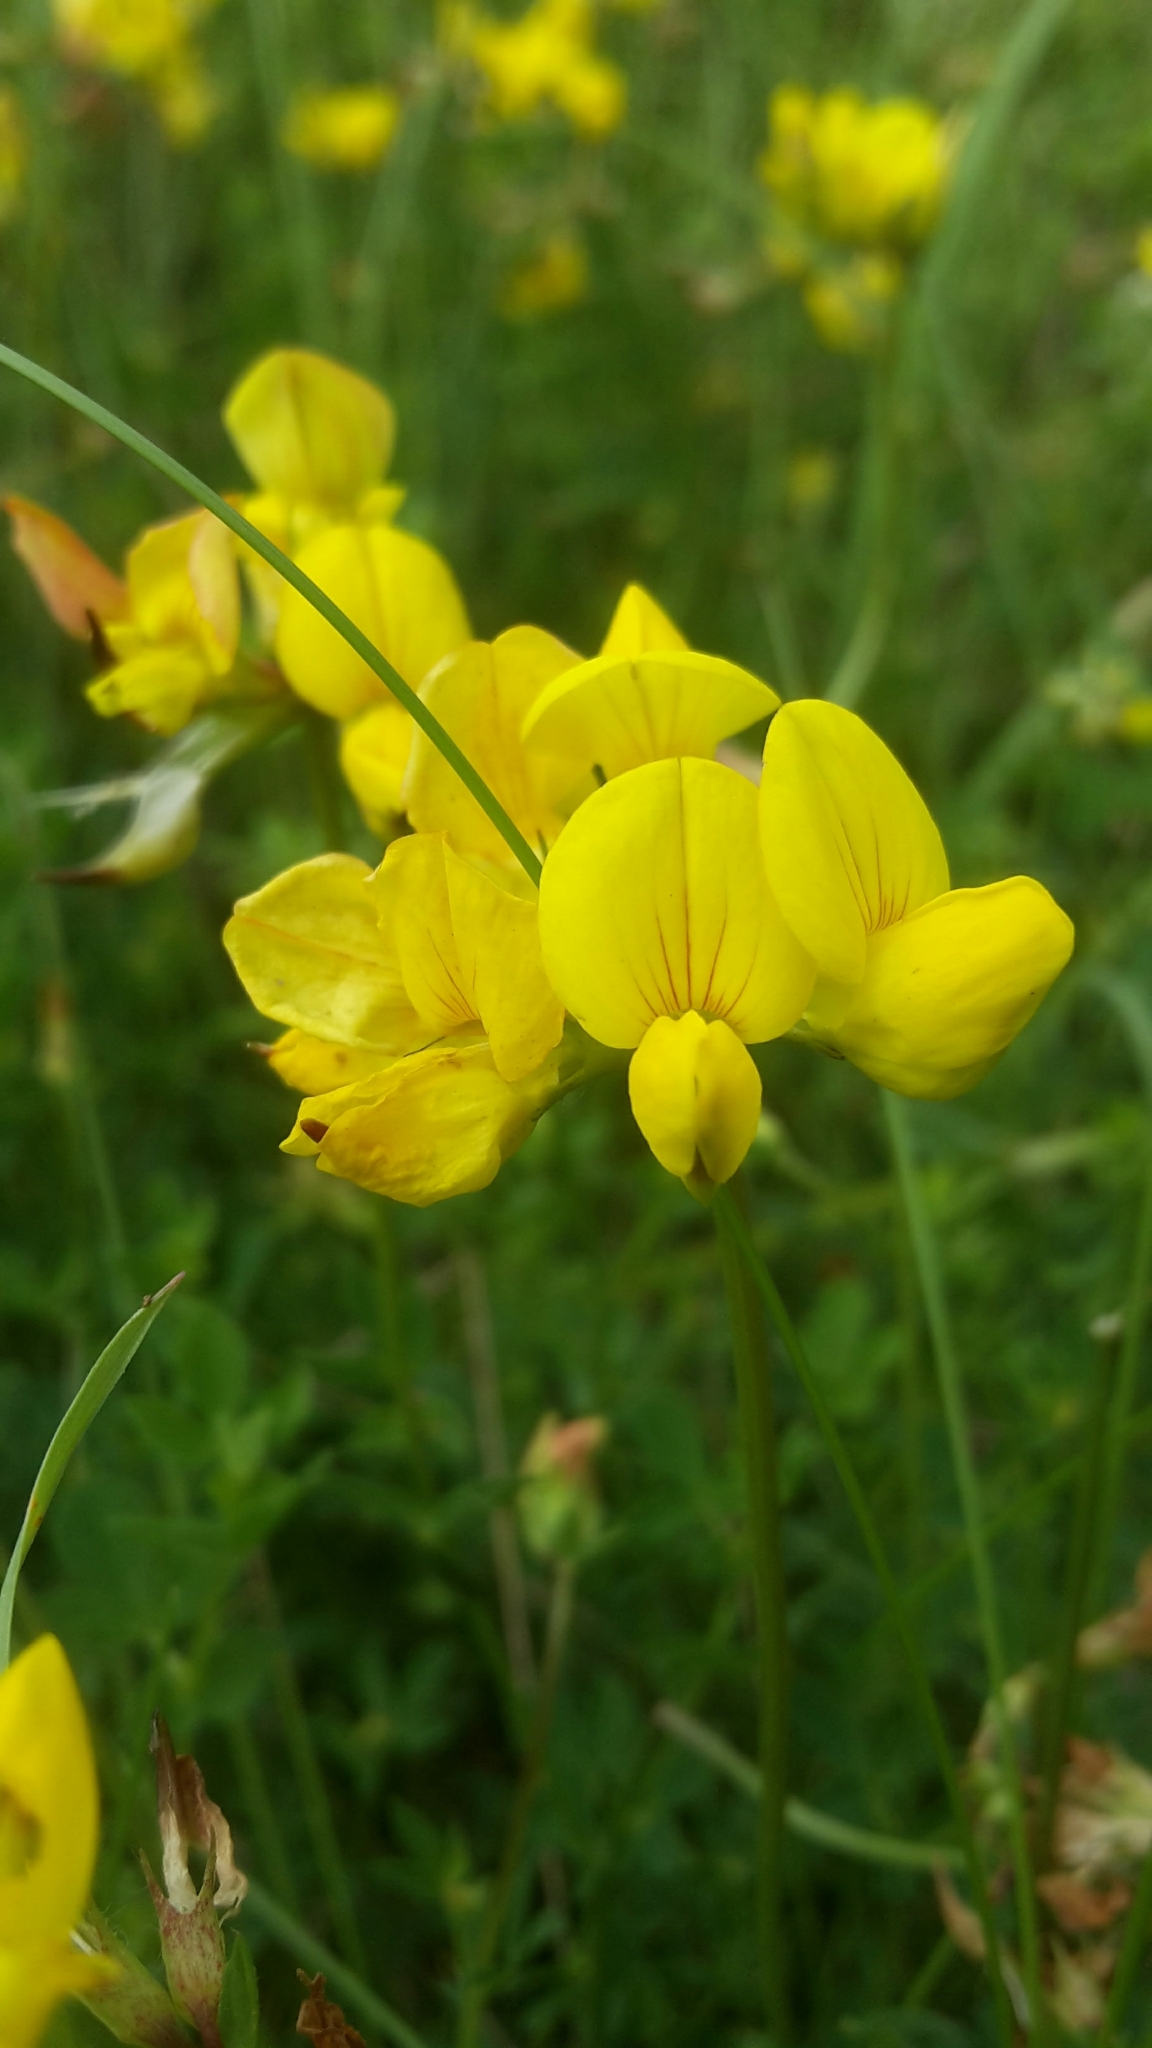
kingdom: Plantae
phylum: Tracheophyta
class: Magnoliopsida
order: Fabales
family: Fabaceae
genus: Lotus
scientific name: Lotus corniculatus
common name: Common bird's-foot-trefoil
